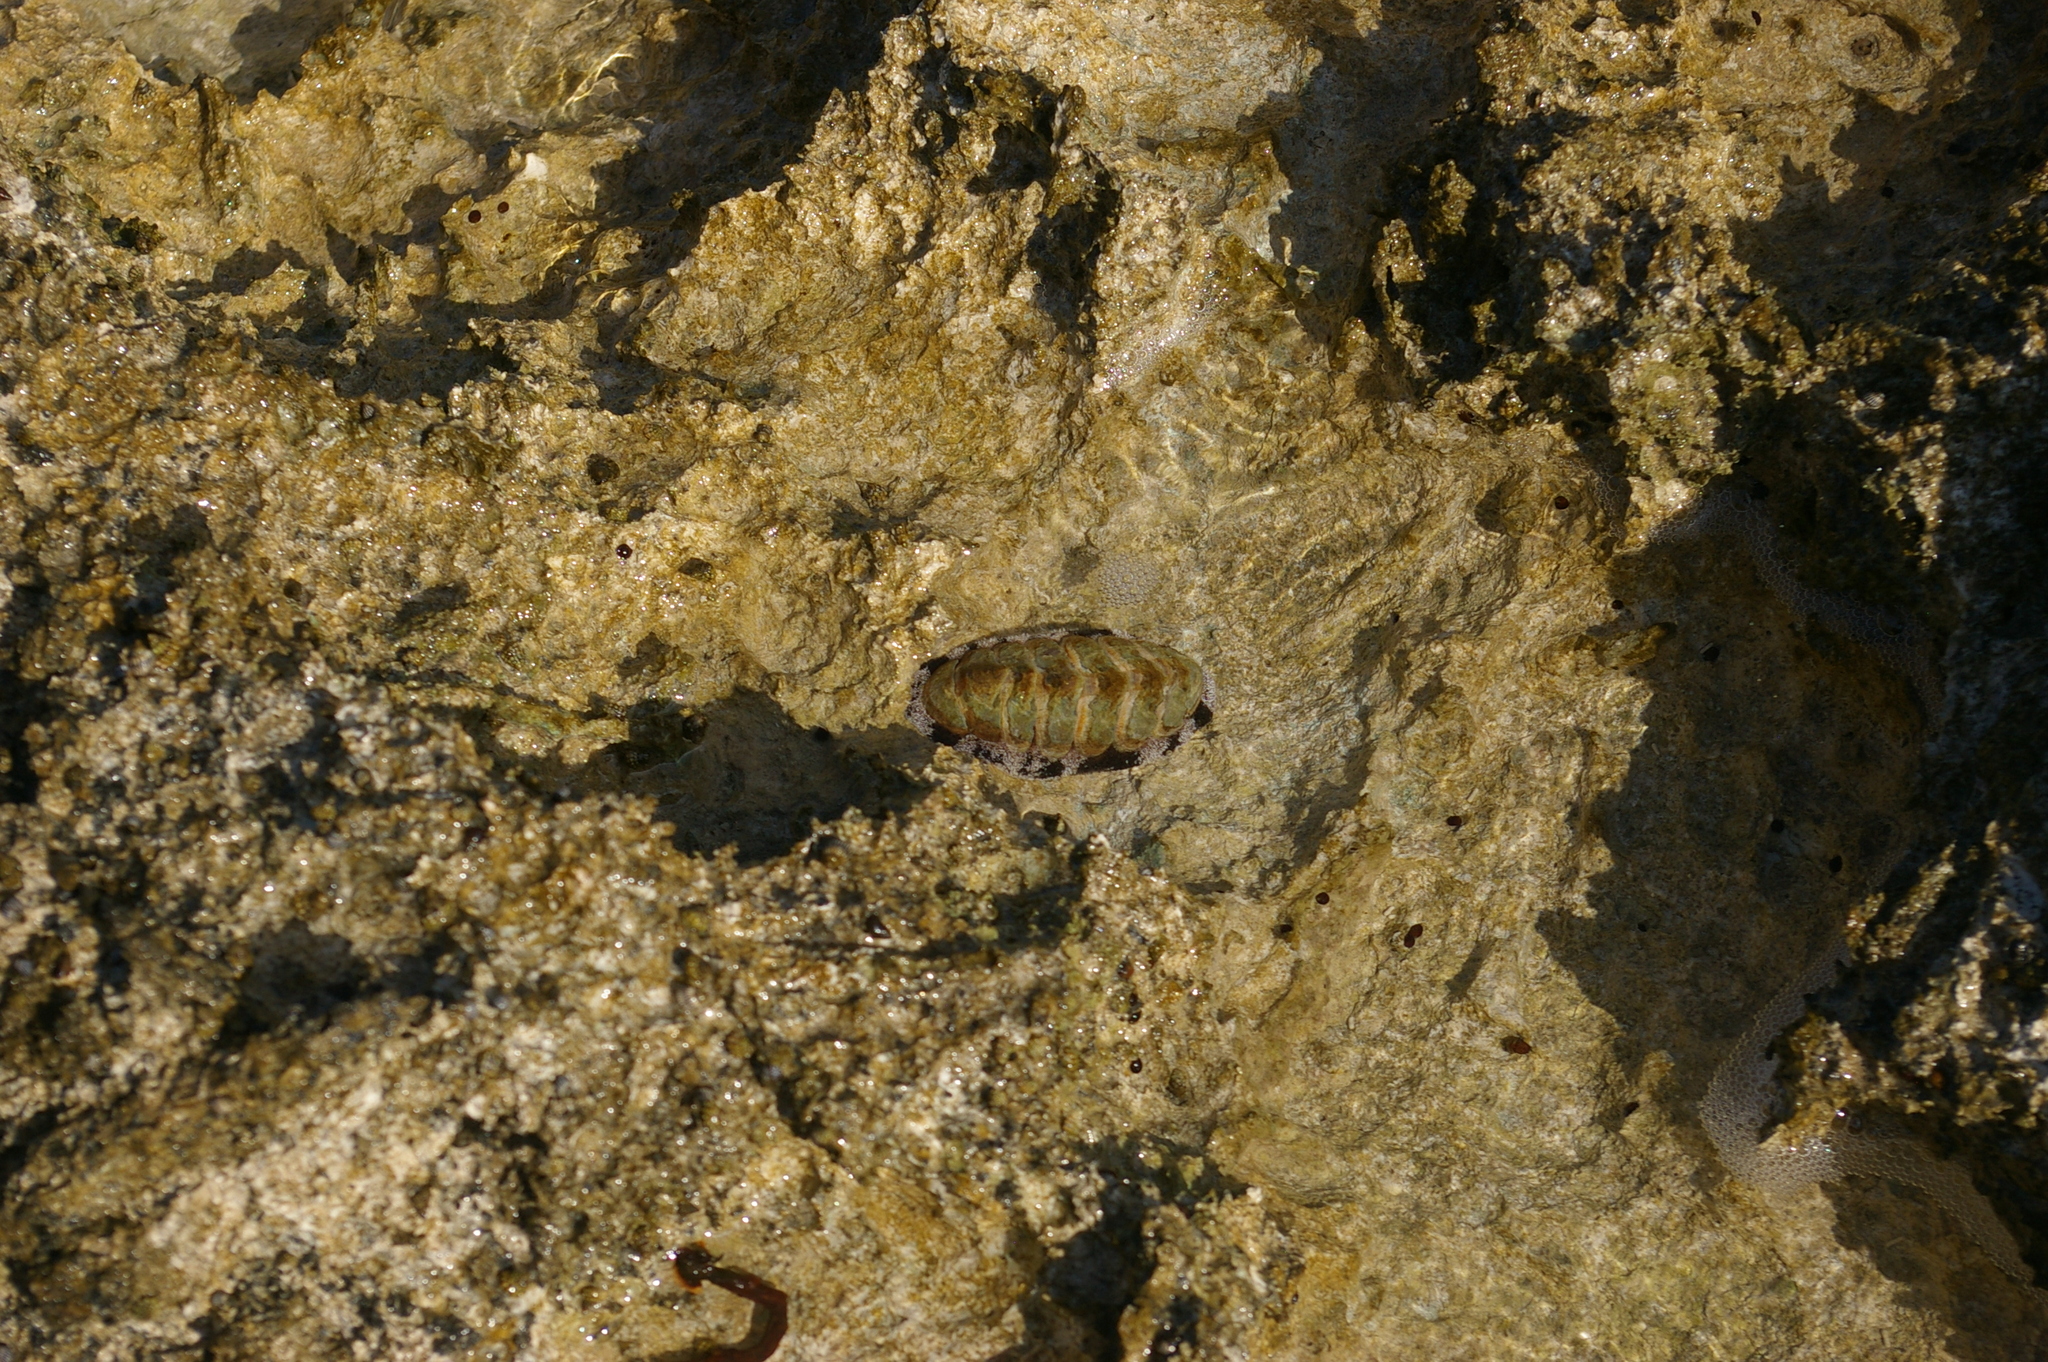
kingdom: Animalia
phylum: Mollusca
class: Polyplacophora
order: Chitonida
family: Chitonidae
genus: Acanthopleura
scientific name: Acanthopleura granulata
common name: West indian fuzzy chiton
